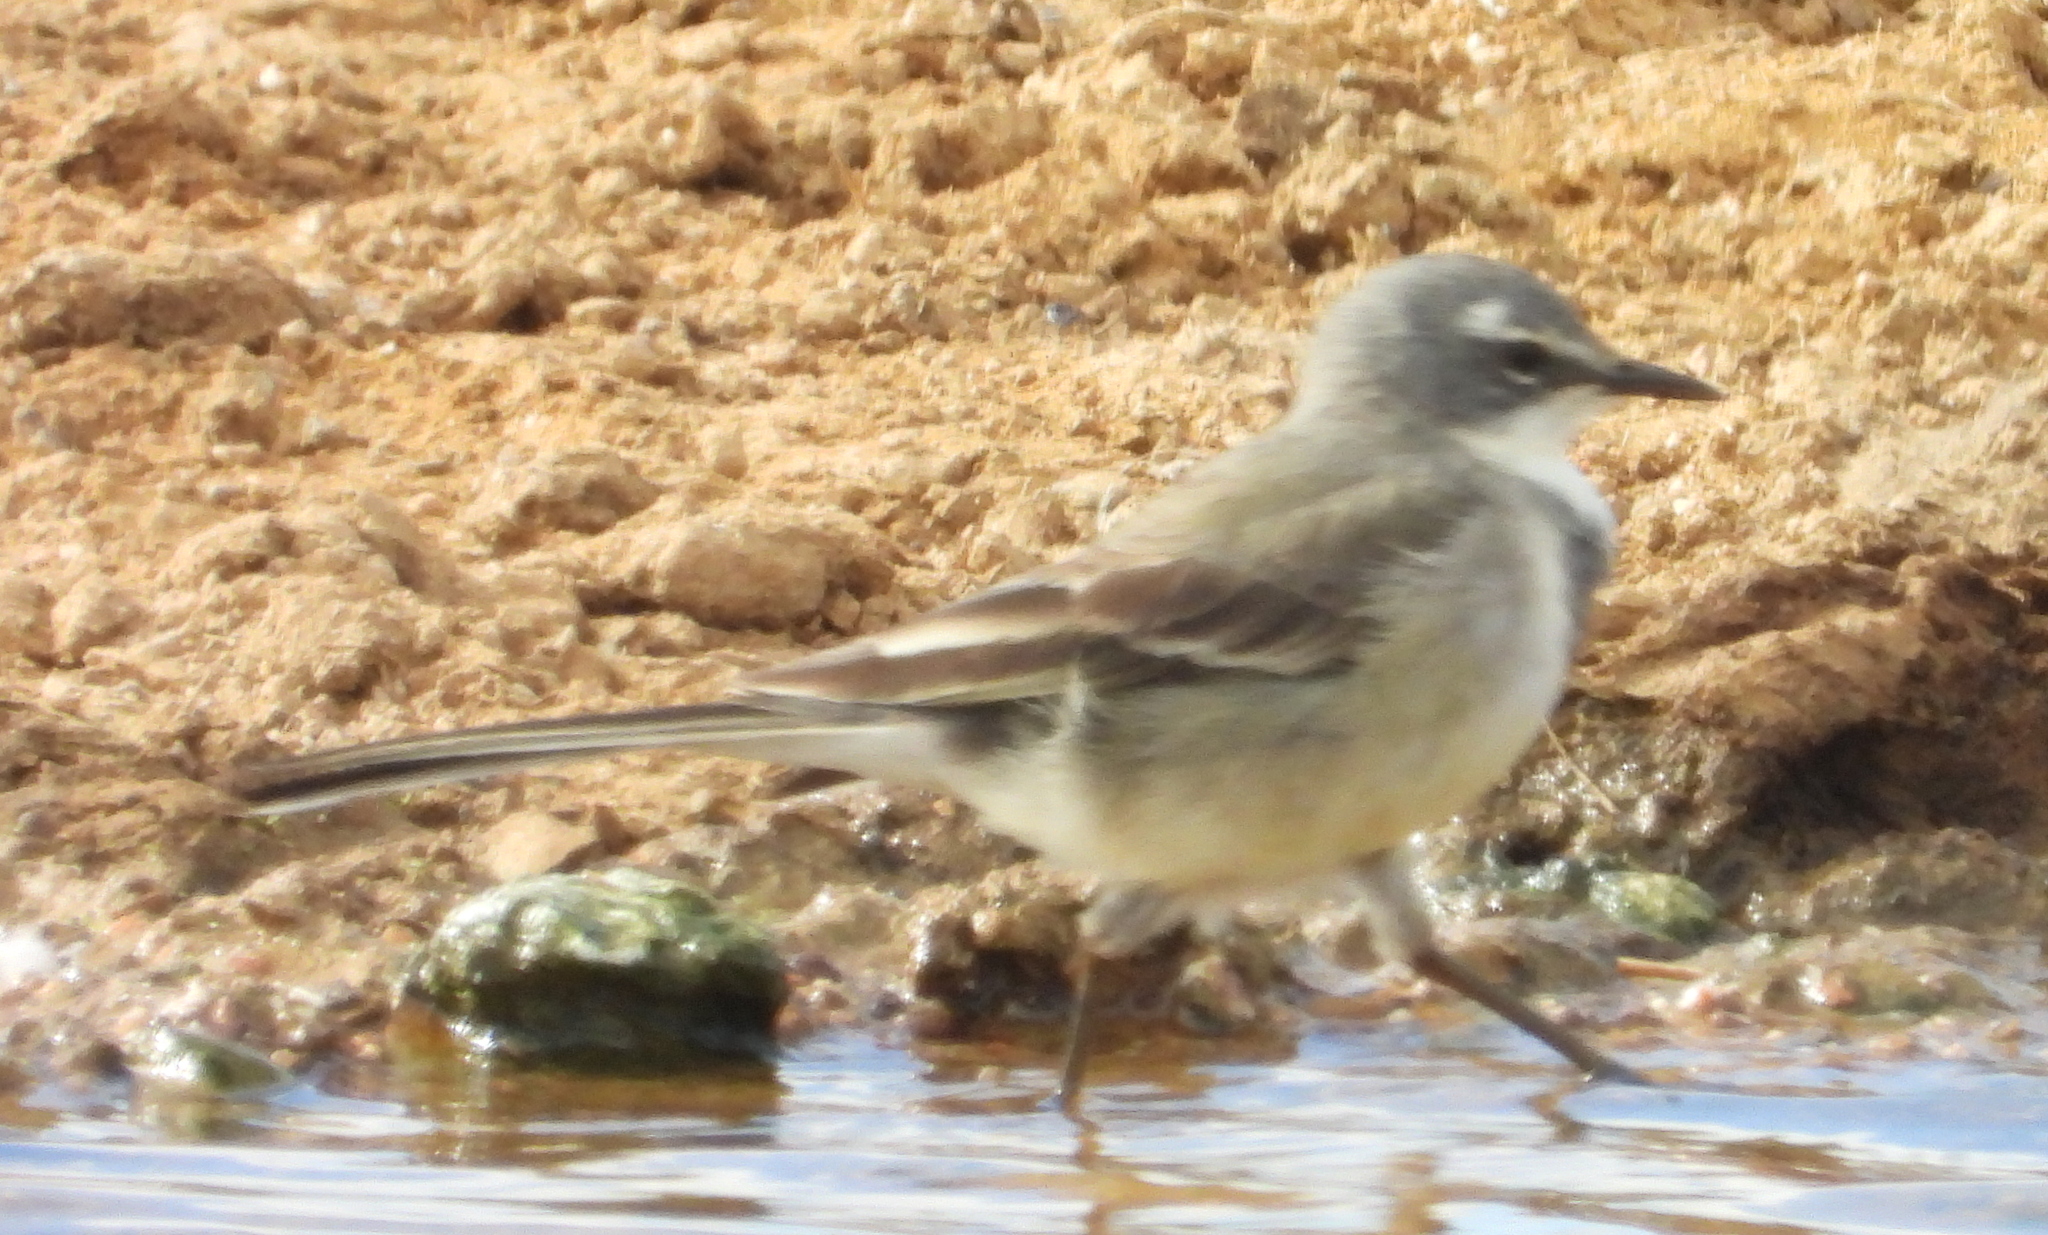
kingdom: Animalia
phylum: Chordata
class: Aves
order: Passeriformes
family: Motacillidae
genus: Motacilla
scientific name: Motacilla capensis
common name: Cape wagtail
